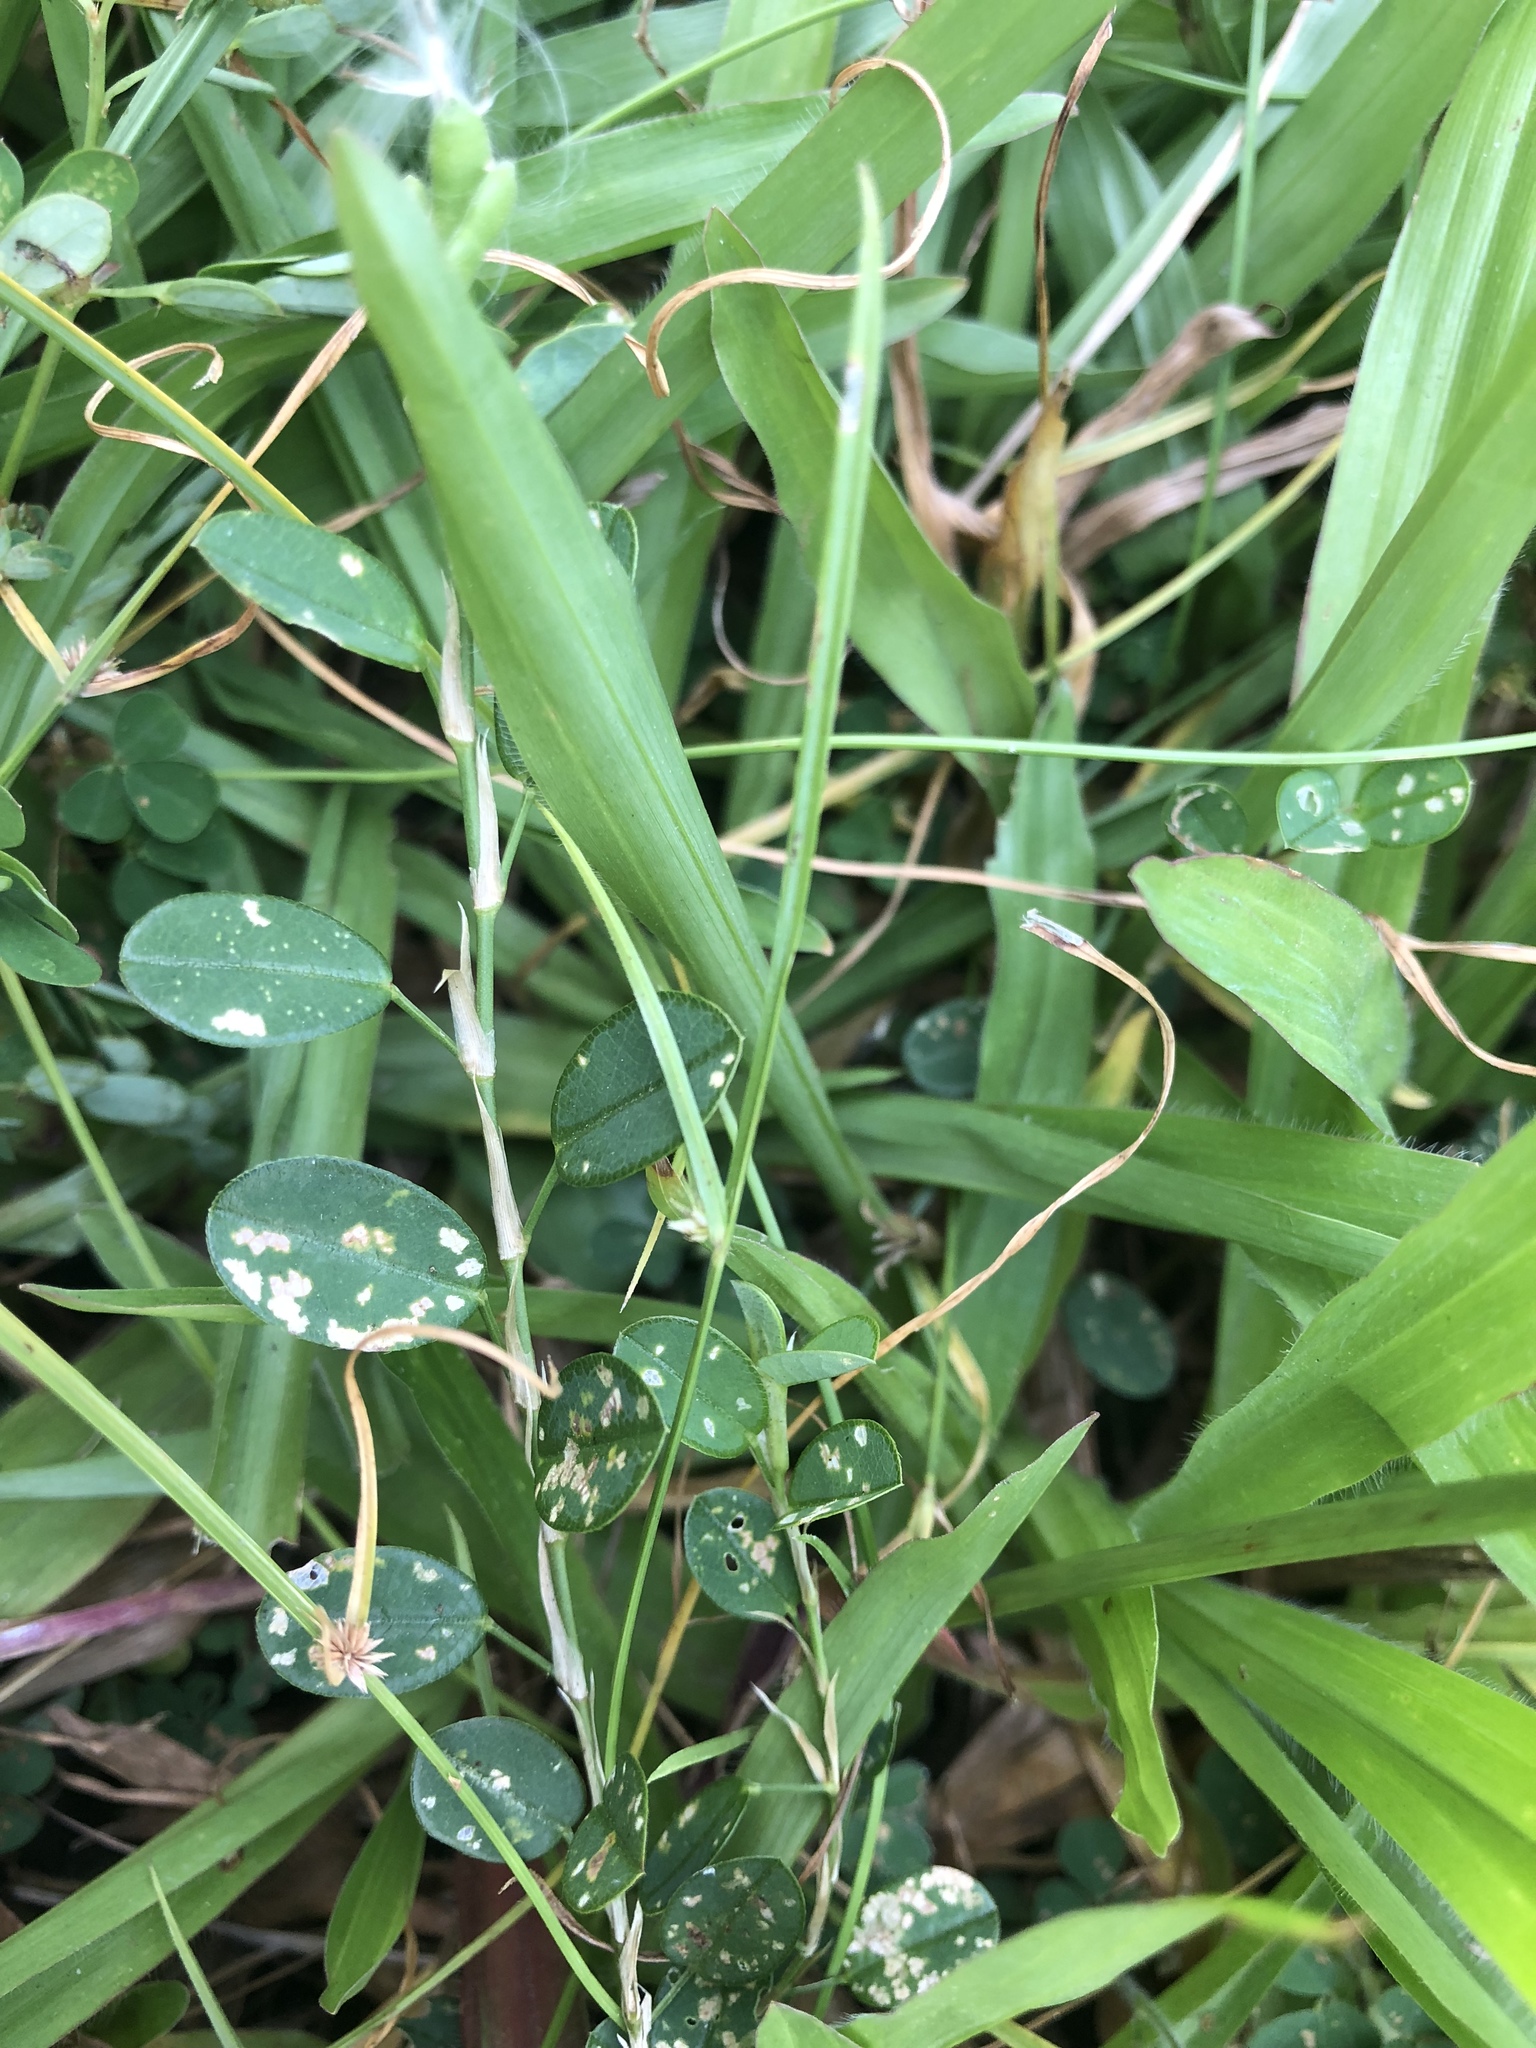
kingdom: Plantae
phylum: Tracheophyta
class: Magnoliopsida
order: Fabales
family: Fabaceae
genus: Alysicarpus
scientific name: Alysicarpus vaginalis
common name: White moneywort
